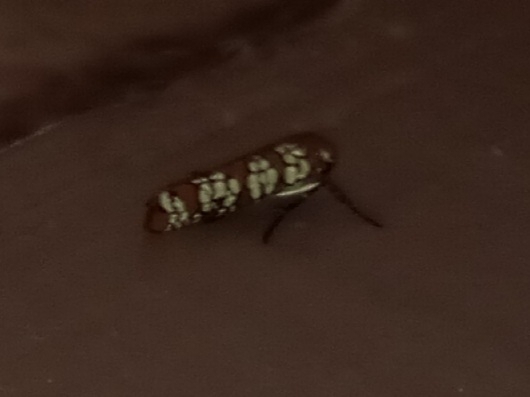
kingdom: Animalia
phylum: Arthropoda
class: Insecta
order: Lepidoptera
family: Attevidae
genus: Atteva
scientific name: Atteva punctella
